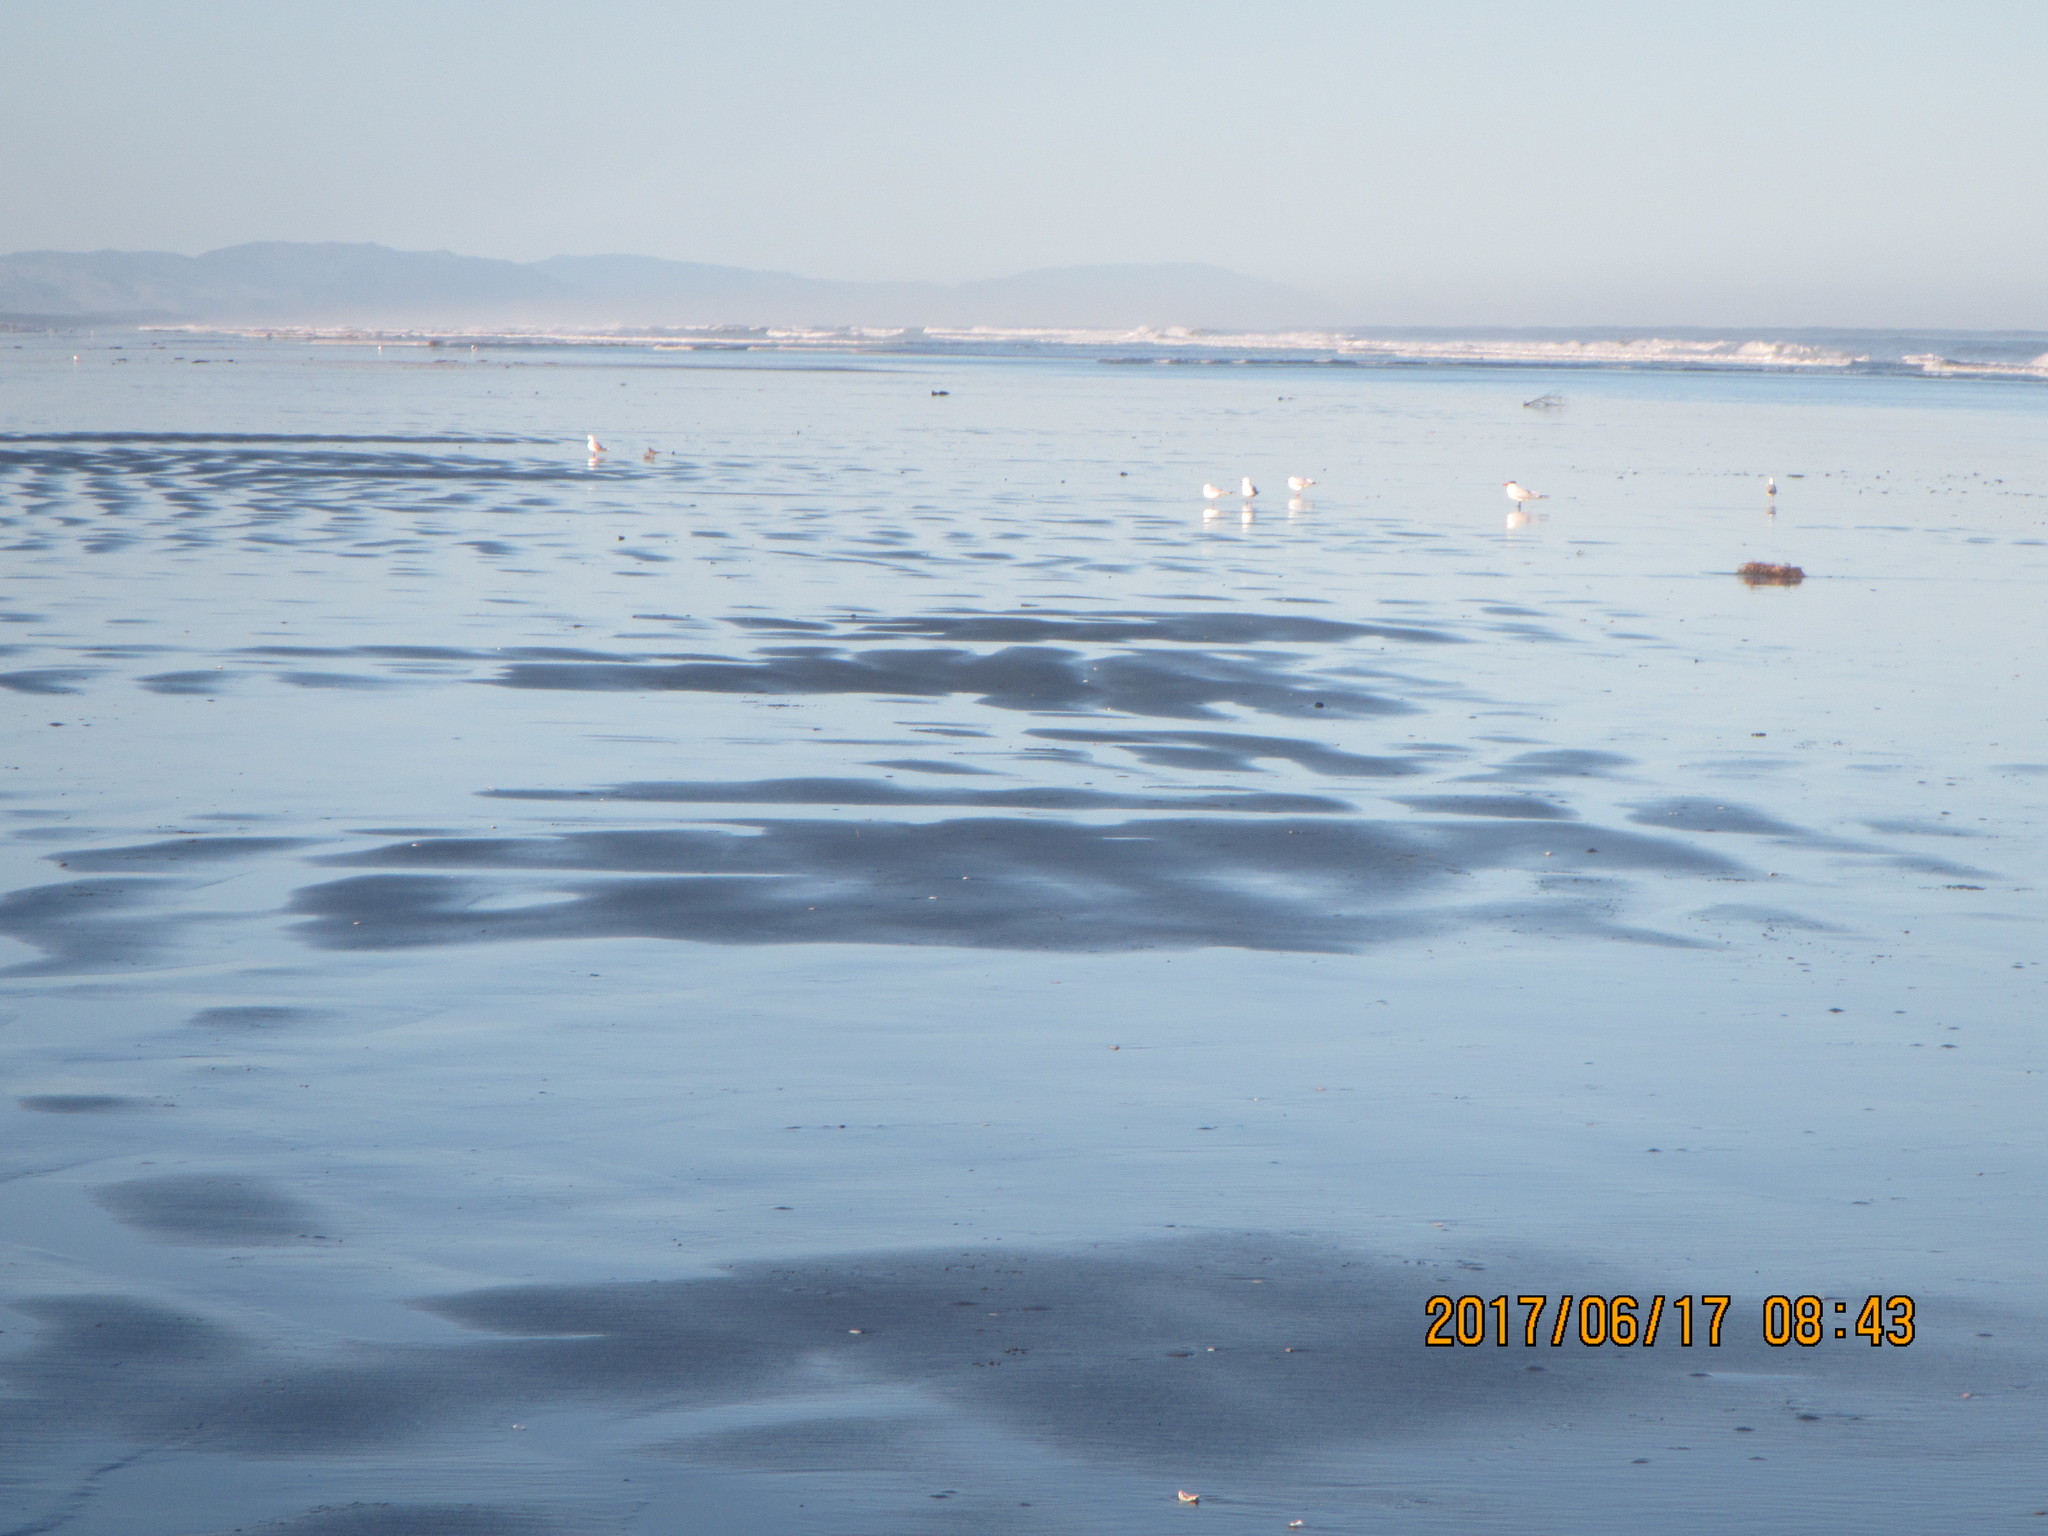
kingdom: Animalia
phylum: Chordata
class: Aves
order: Charadriiformes
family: Laridae
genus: Hydroprogne
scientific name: Hydroprogne caspia
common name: Caspian tern
